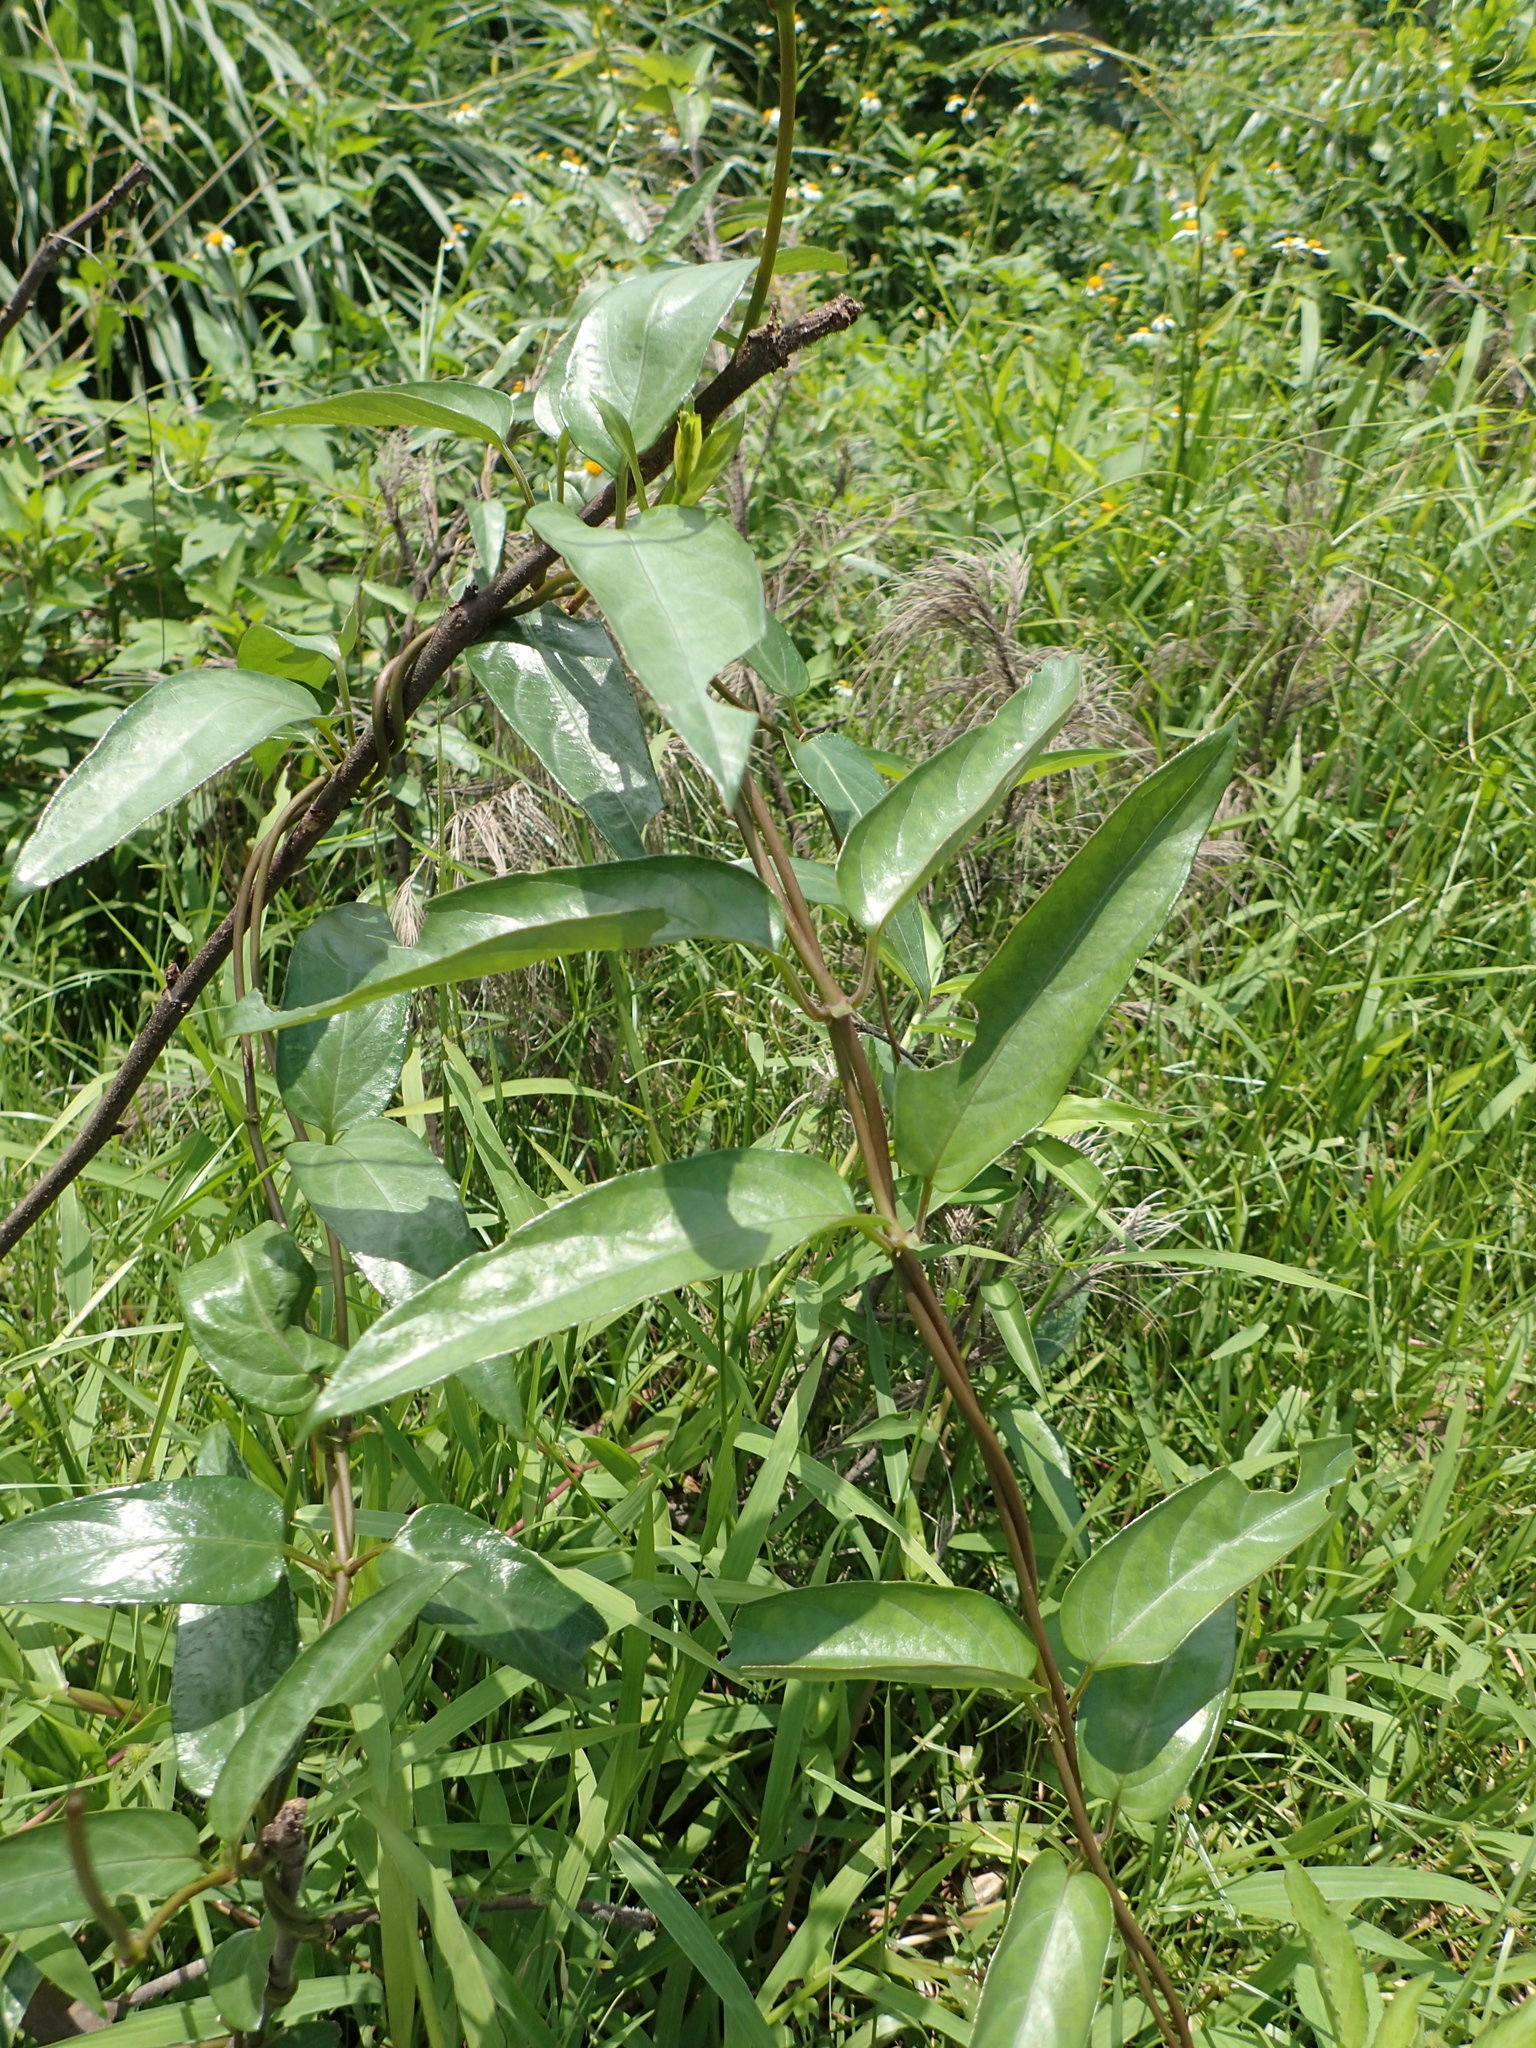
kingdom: Plantae
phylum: Tracheophyta
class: Magnoliopsida
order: Gentianales
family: Rubiaceae
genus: Paederia
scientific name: Paederia foetida
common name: Stinkvine
